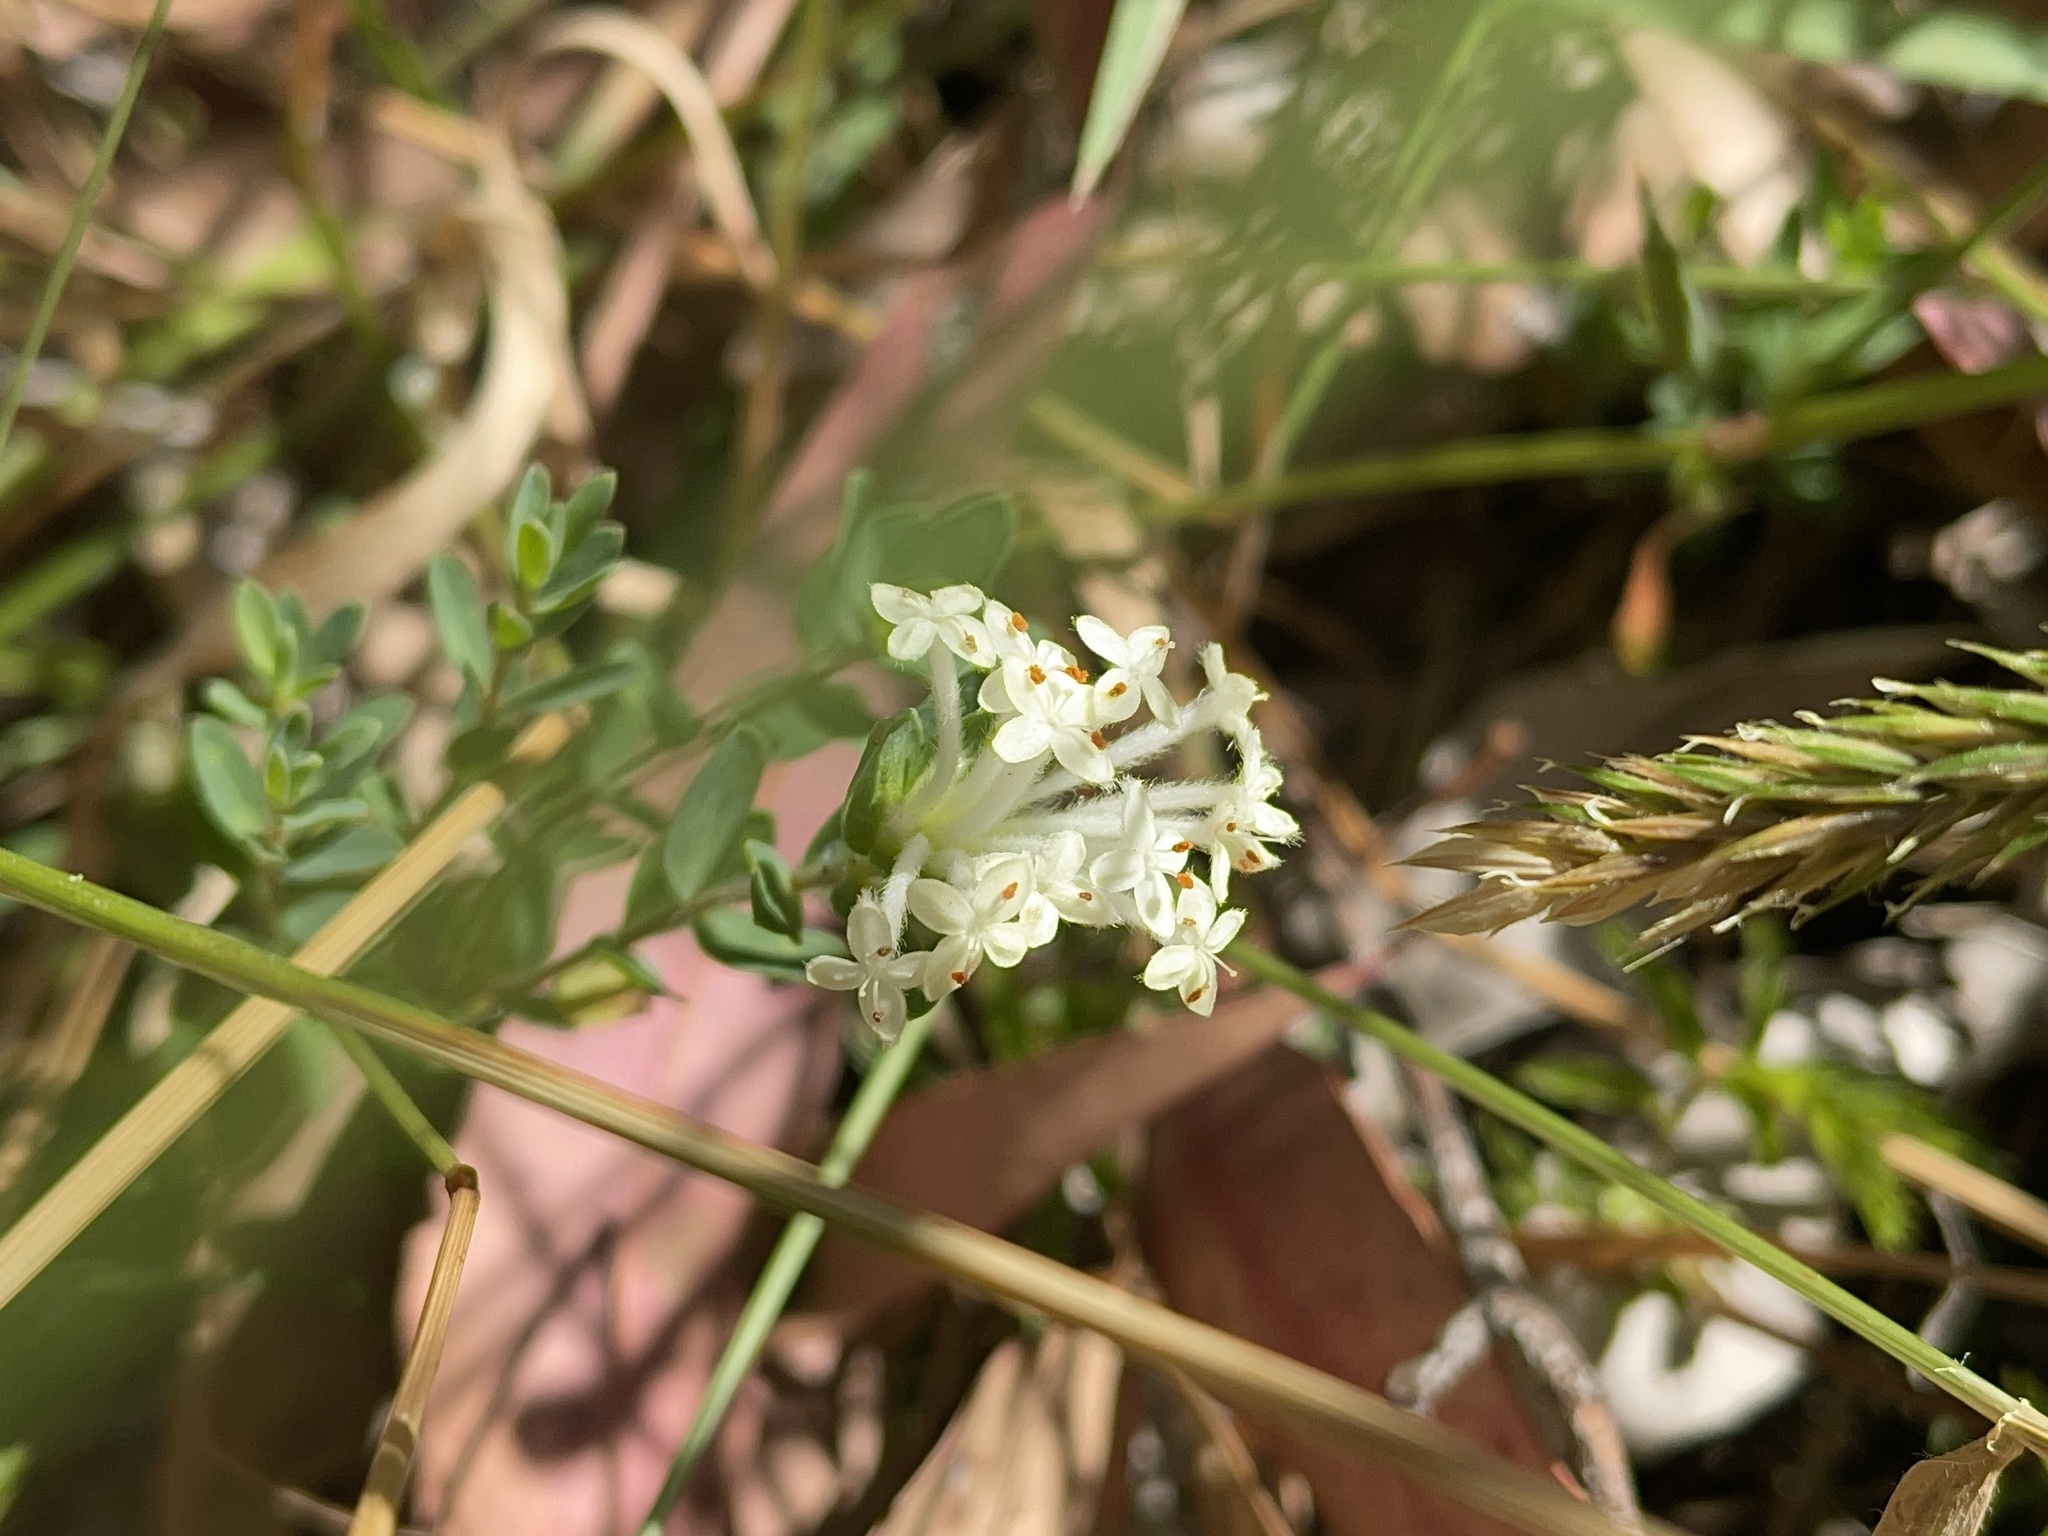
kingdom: Plantae
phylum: Tracheophyta
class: Magnoliopsida
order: Malvales
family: Thymelaeaceae
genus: Pimelea
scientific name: Pimelea humilis
